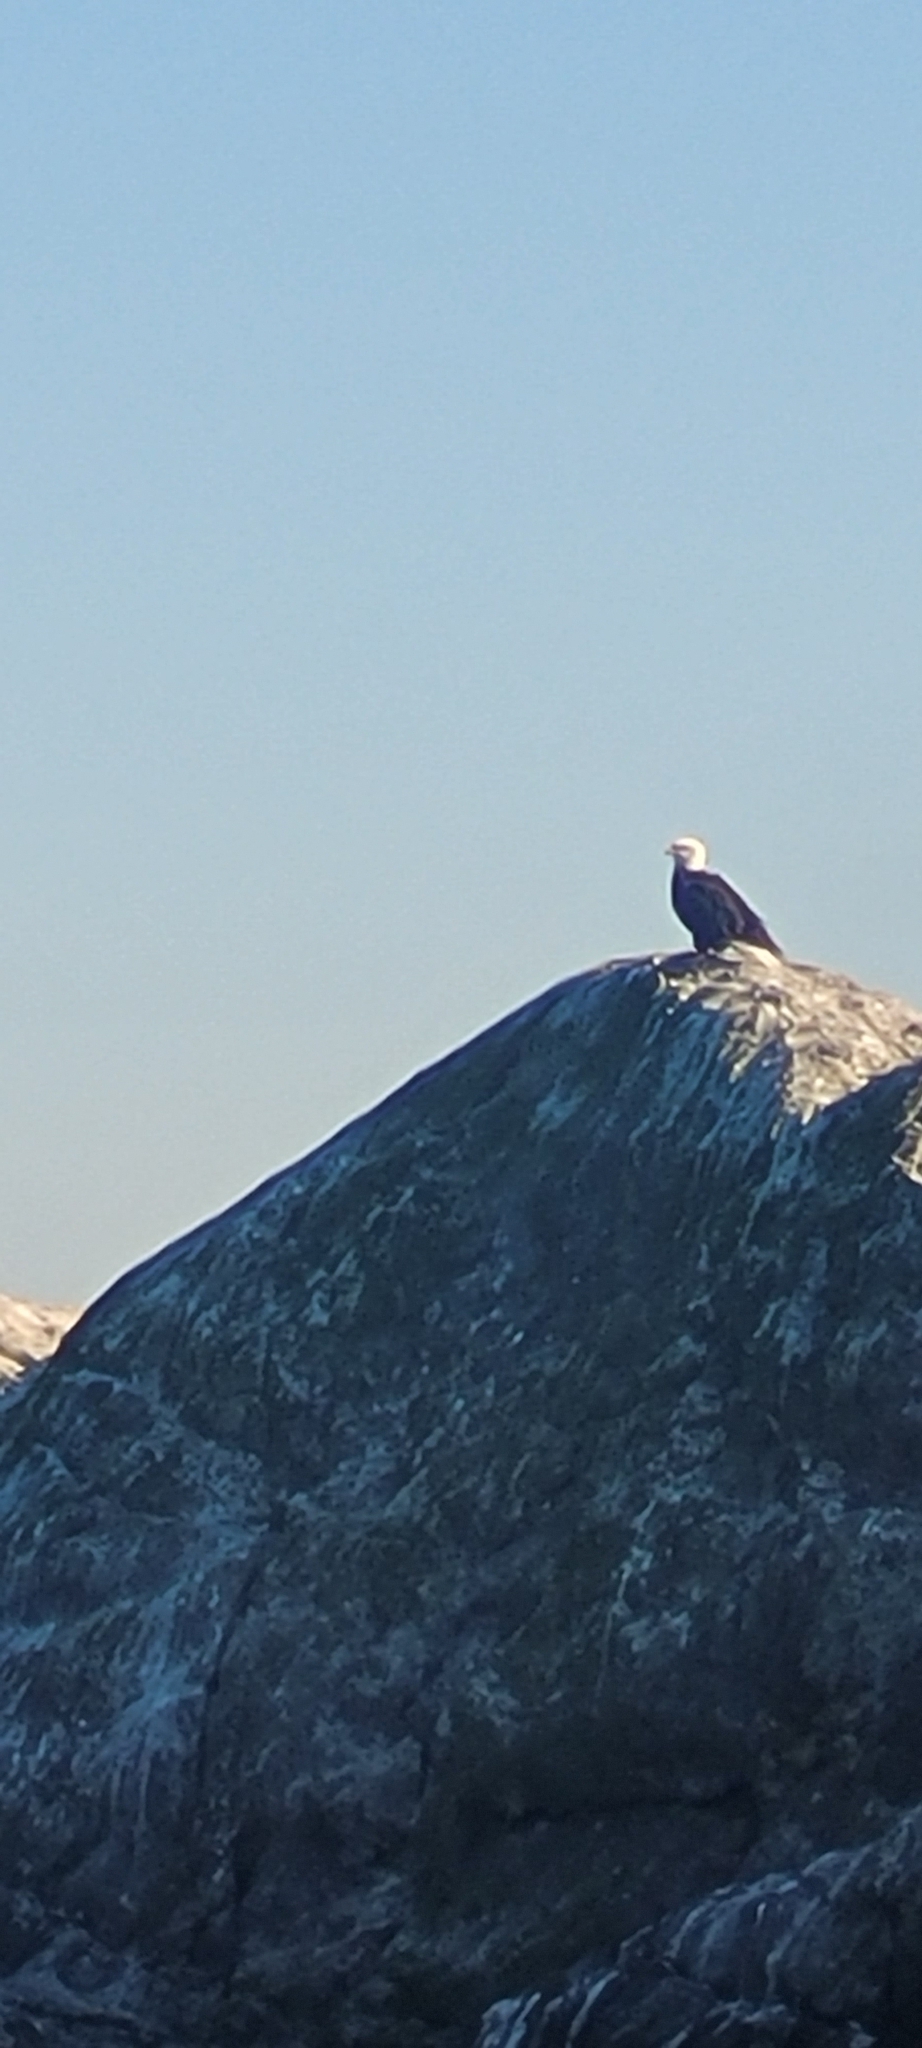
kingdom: Animalia
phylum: Chordata
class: Aves
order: Accipitriformes
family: Accipitridae
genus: Haliaeetus
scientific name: Haliaeetus leucocephalus
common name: Bald eagle
